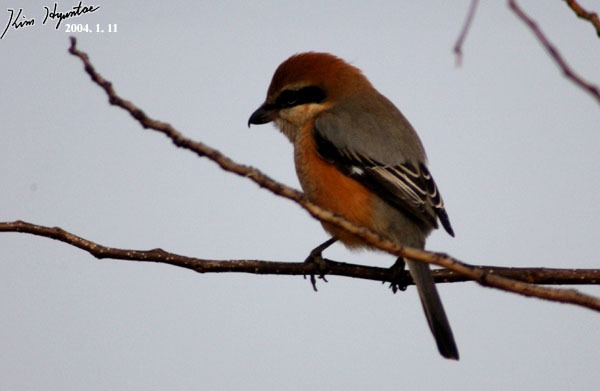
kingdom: Animalia
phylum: Chordata
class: Aves
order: Passeriformes
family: Laniidae
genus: Lanius
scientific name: Lanius bucephalus
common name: Bull-headed shrike
